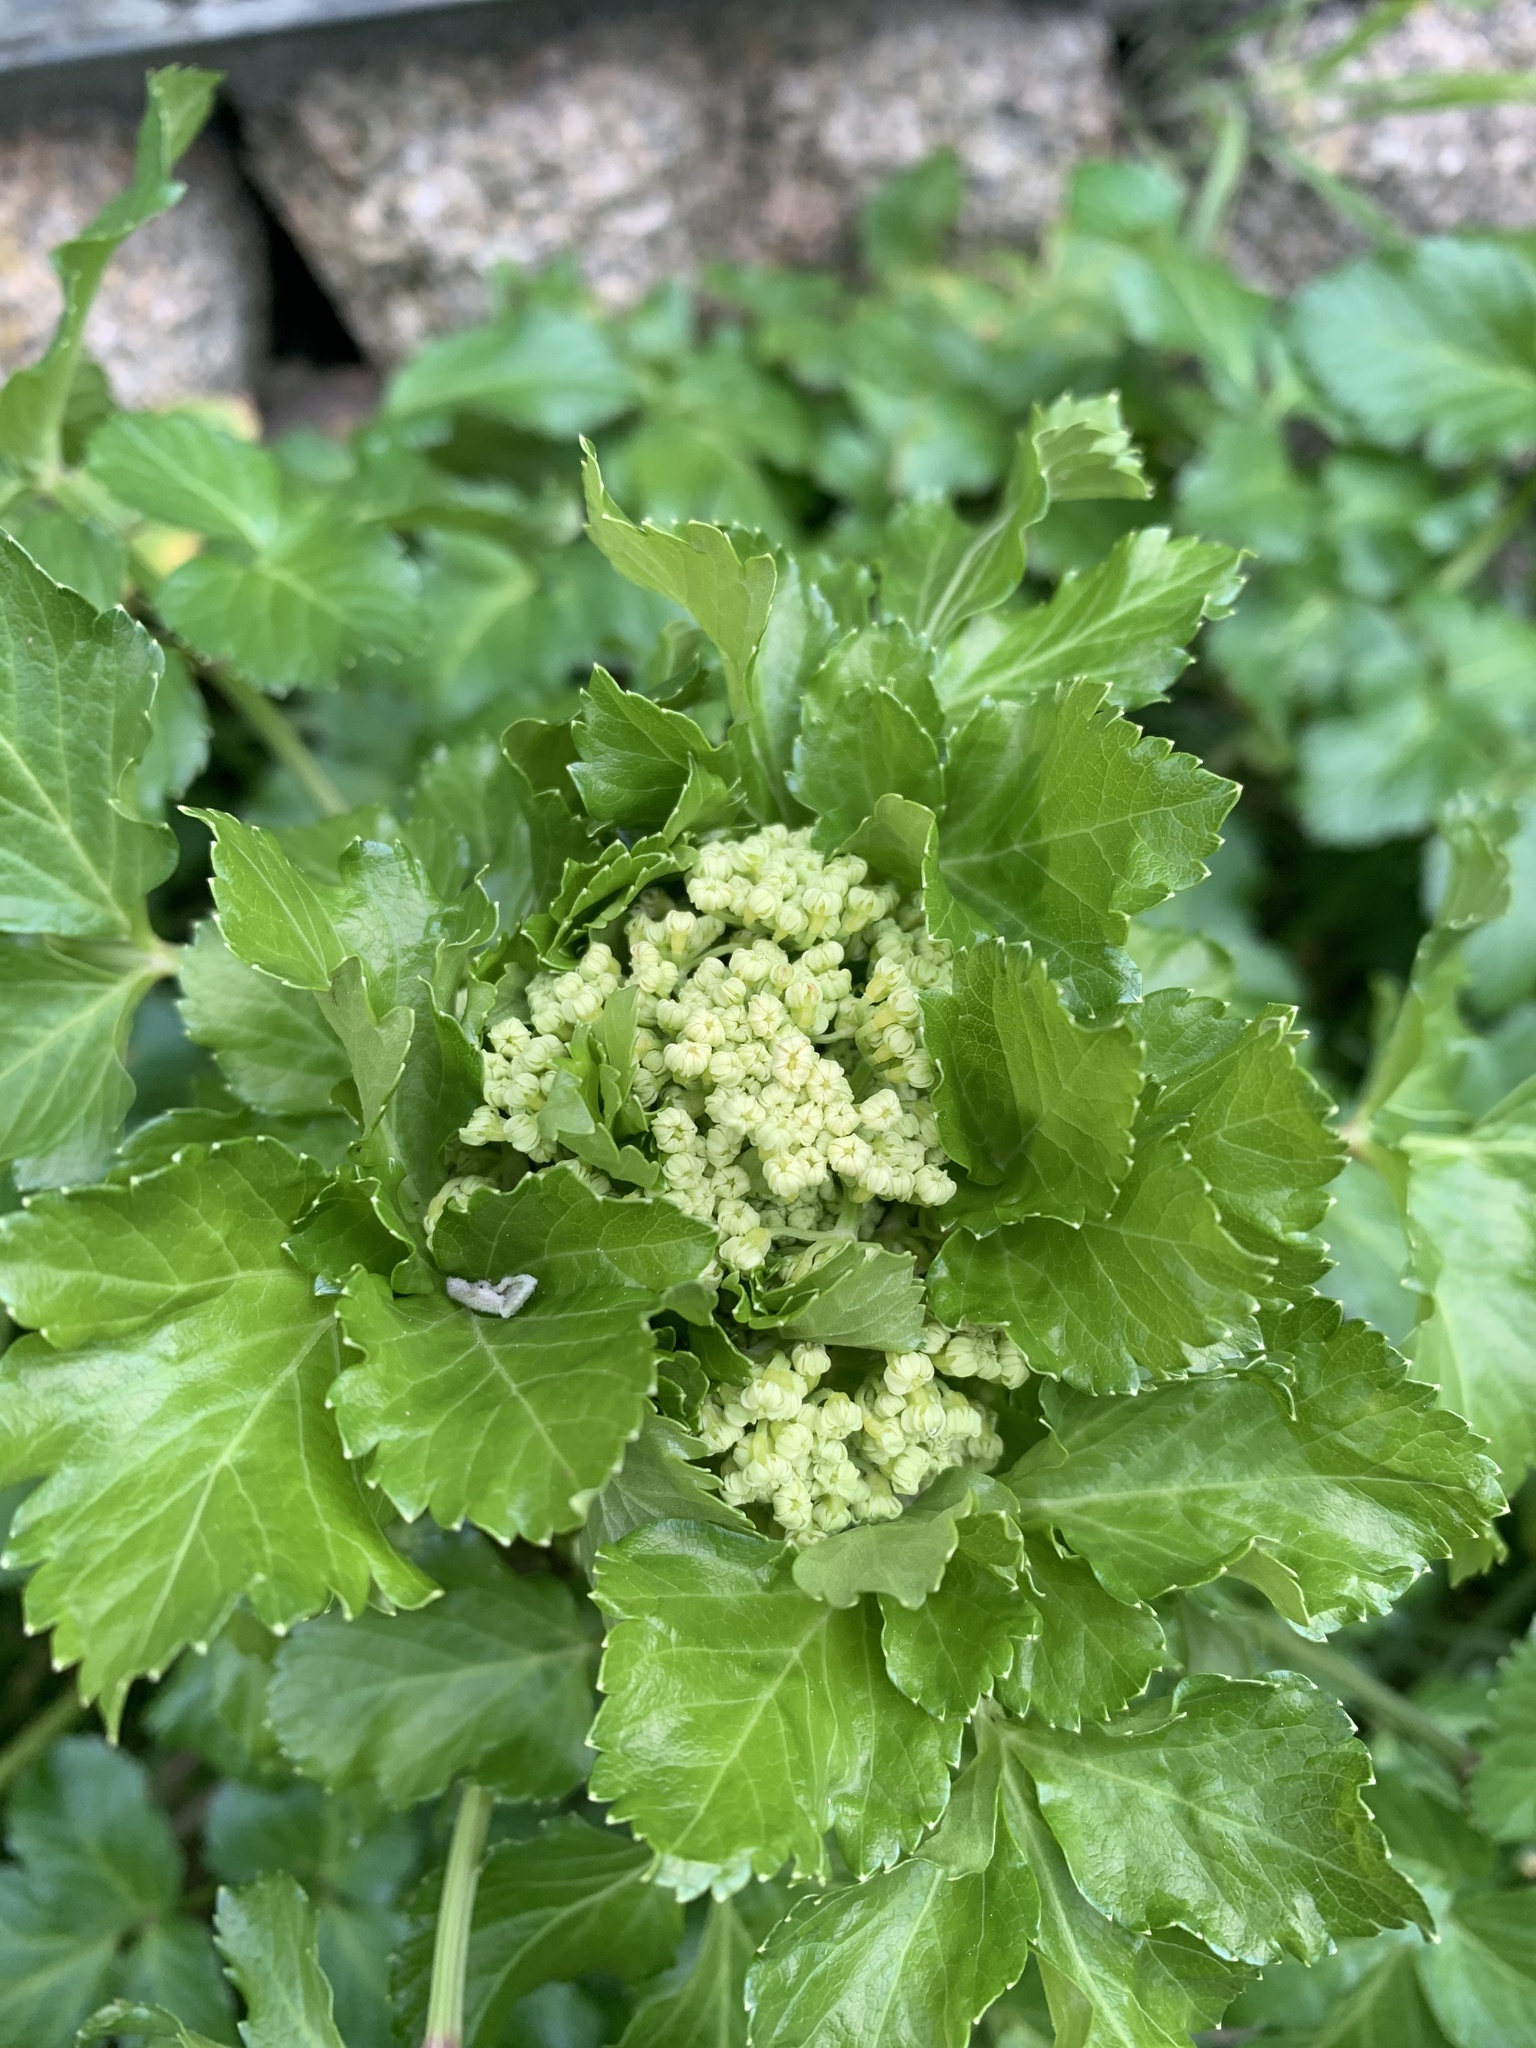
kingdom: Plantae
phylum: Tracheophyta
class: Magnoliopsida
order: Apiales
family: Apiaceae
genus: Smyrnium
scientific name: Smyrnium olusatrum
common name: Alexanders
